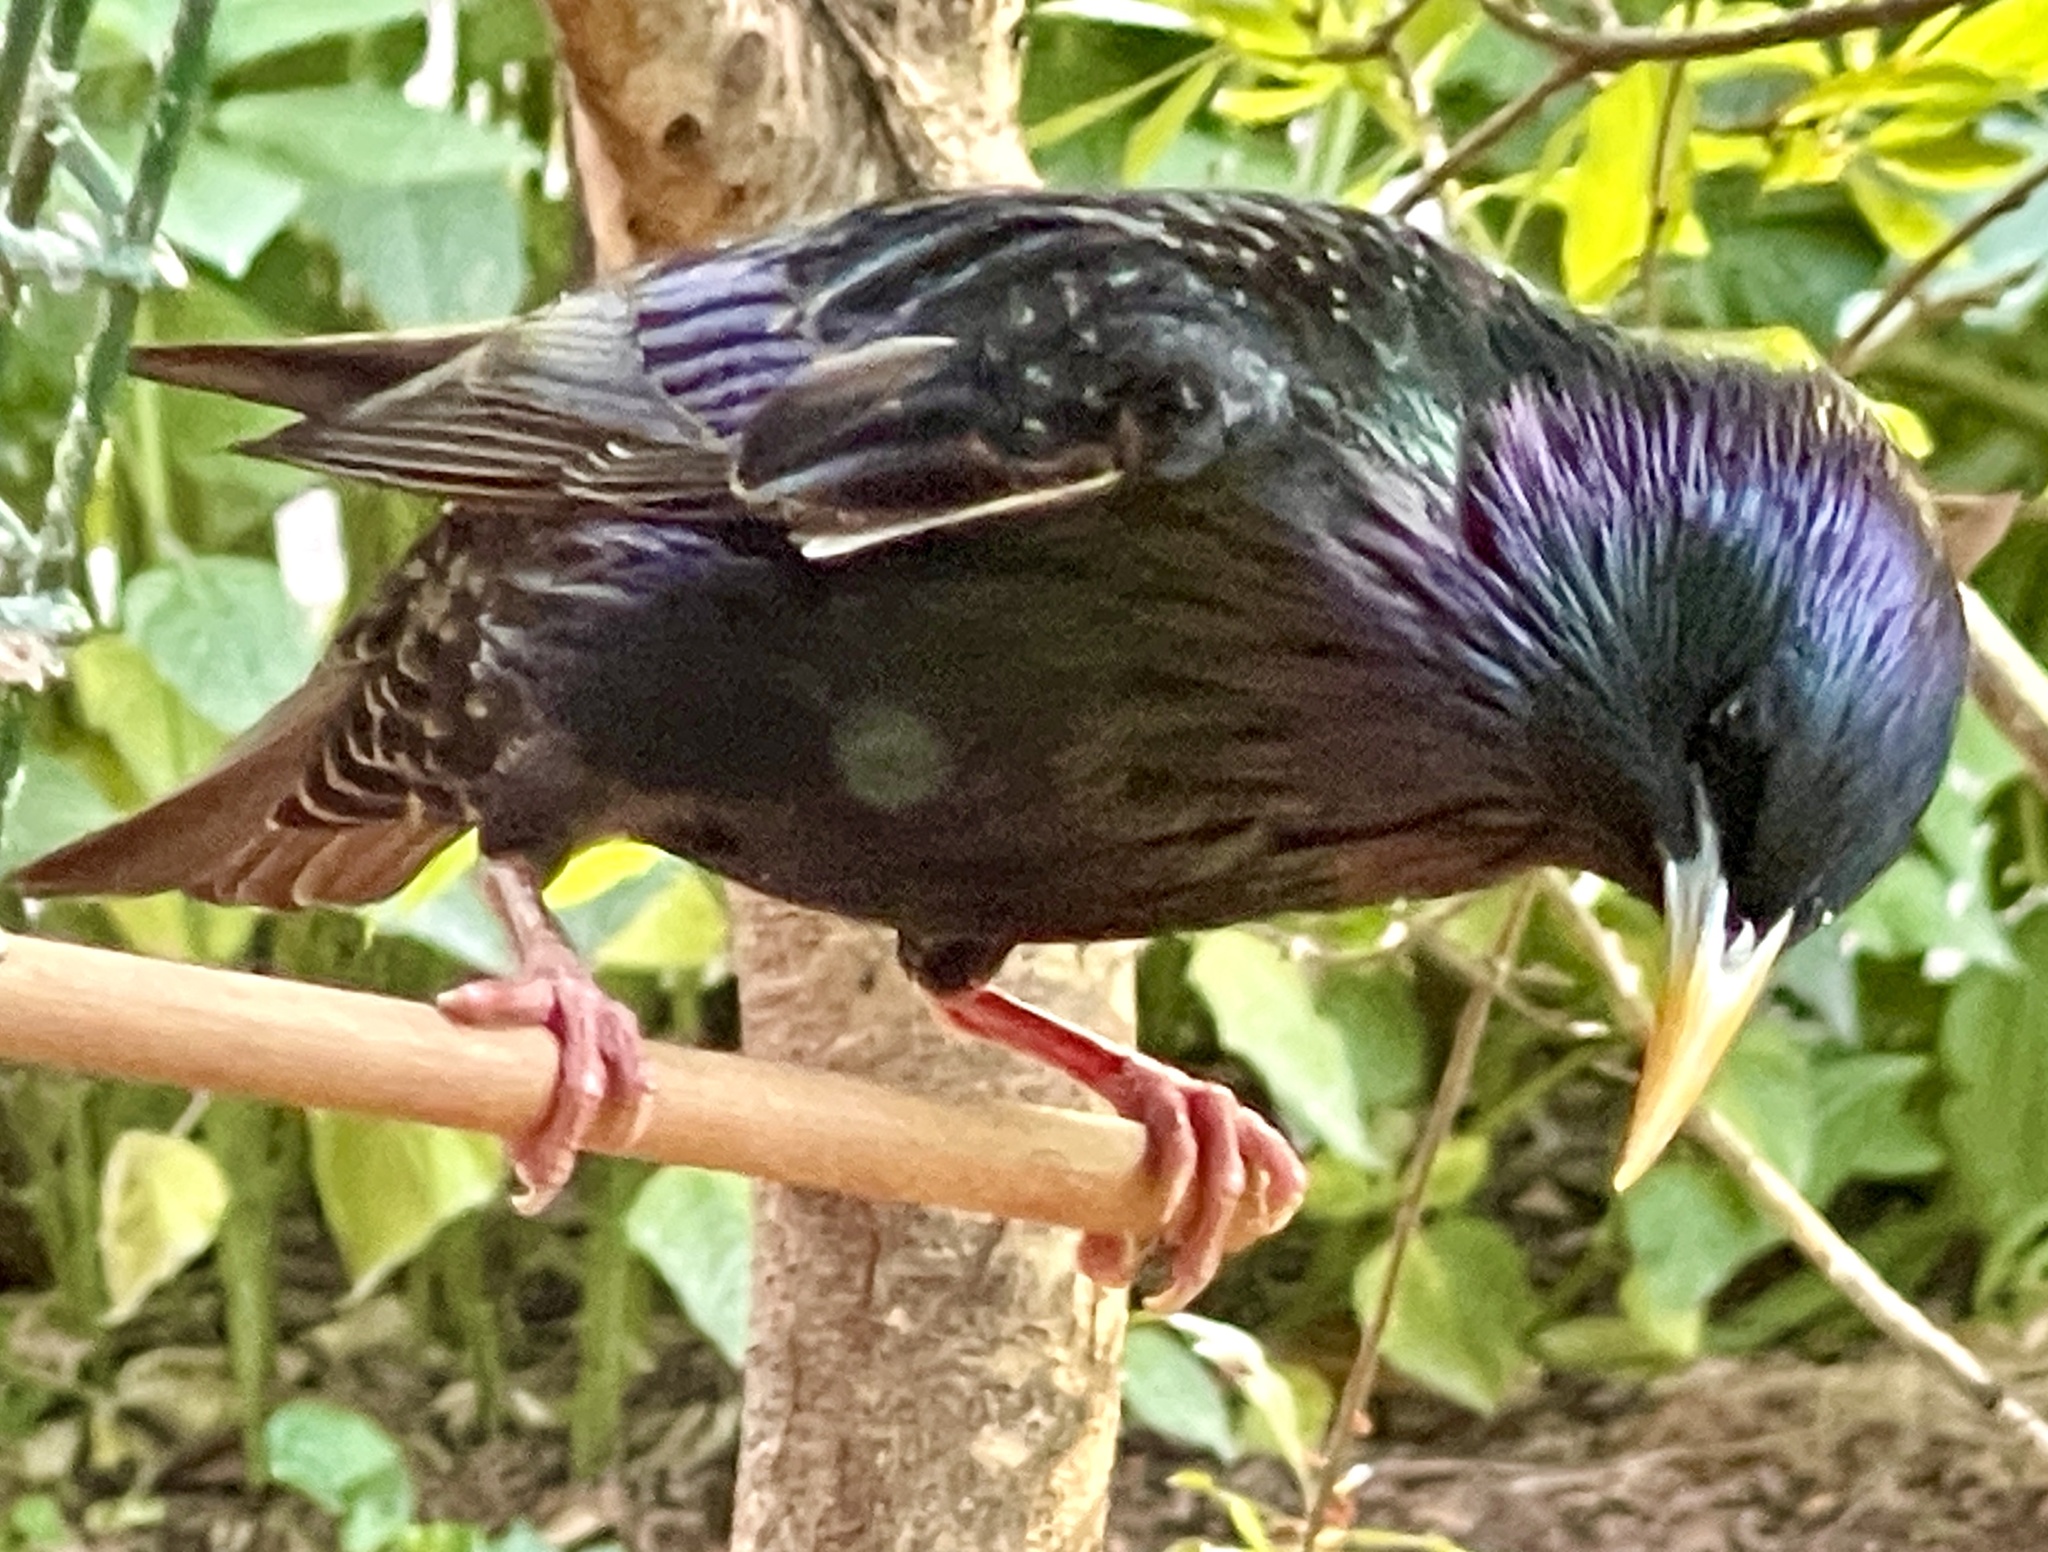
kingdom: Animalia
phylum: Chordata
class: Aves
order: Passeriformes
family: Sturnidae
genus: Sturnus
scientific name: Sturnus vulgaris
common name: Common starling
